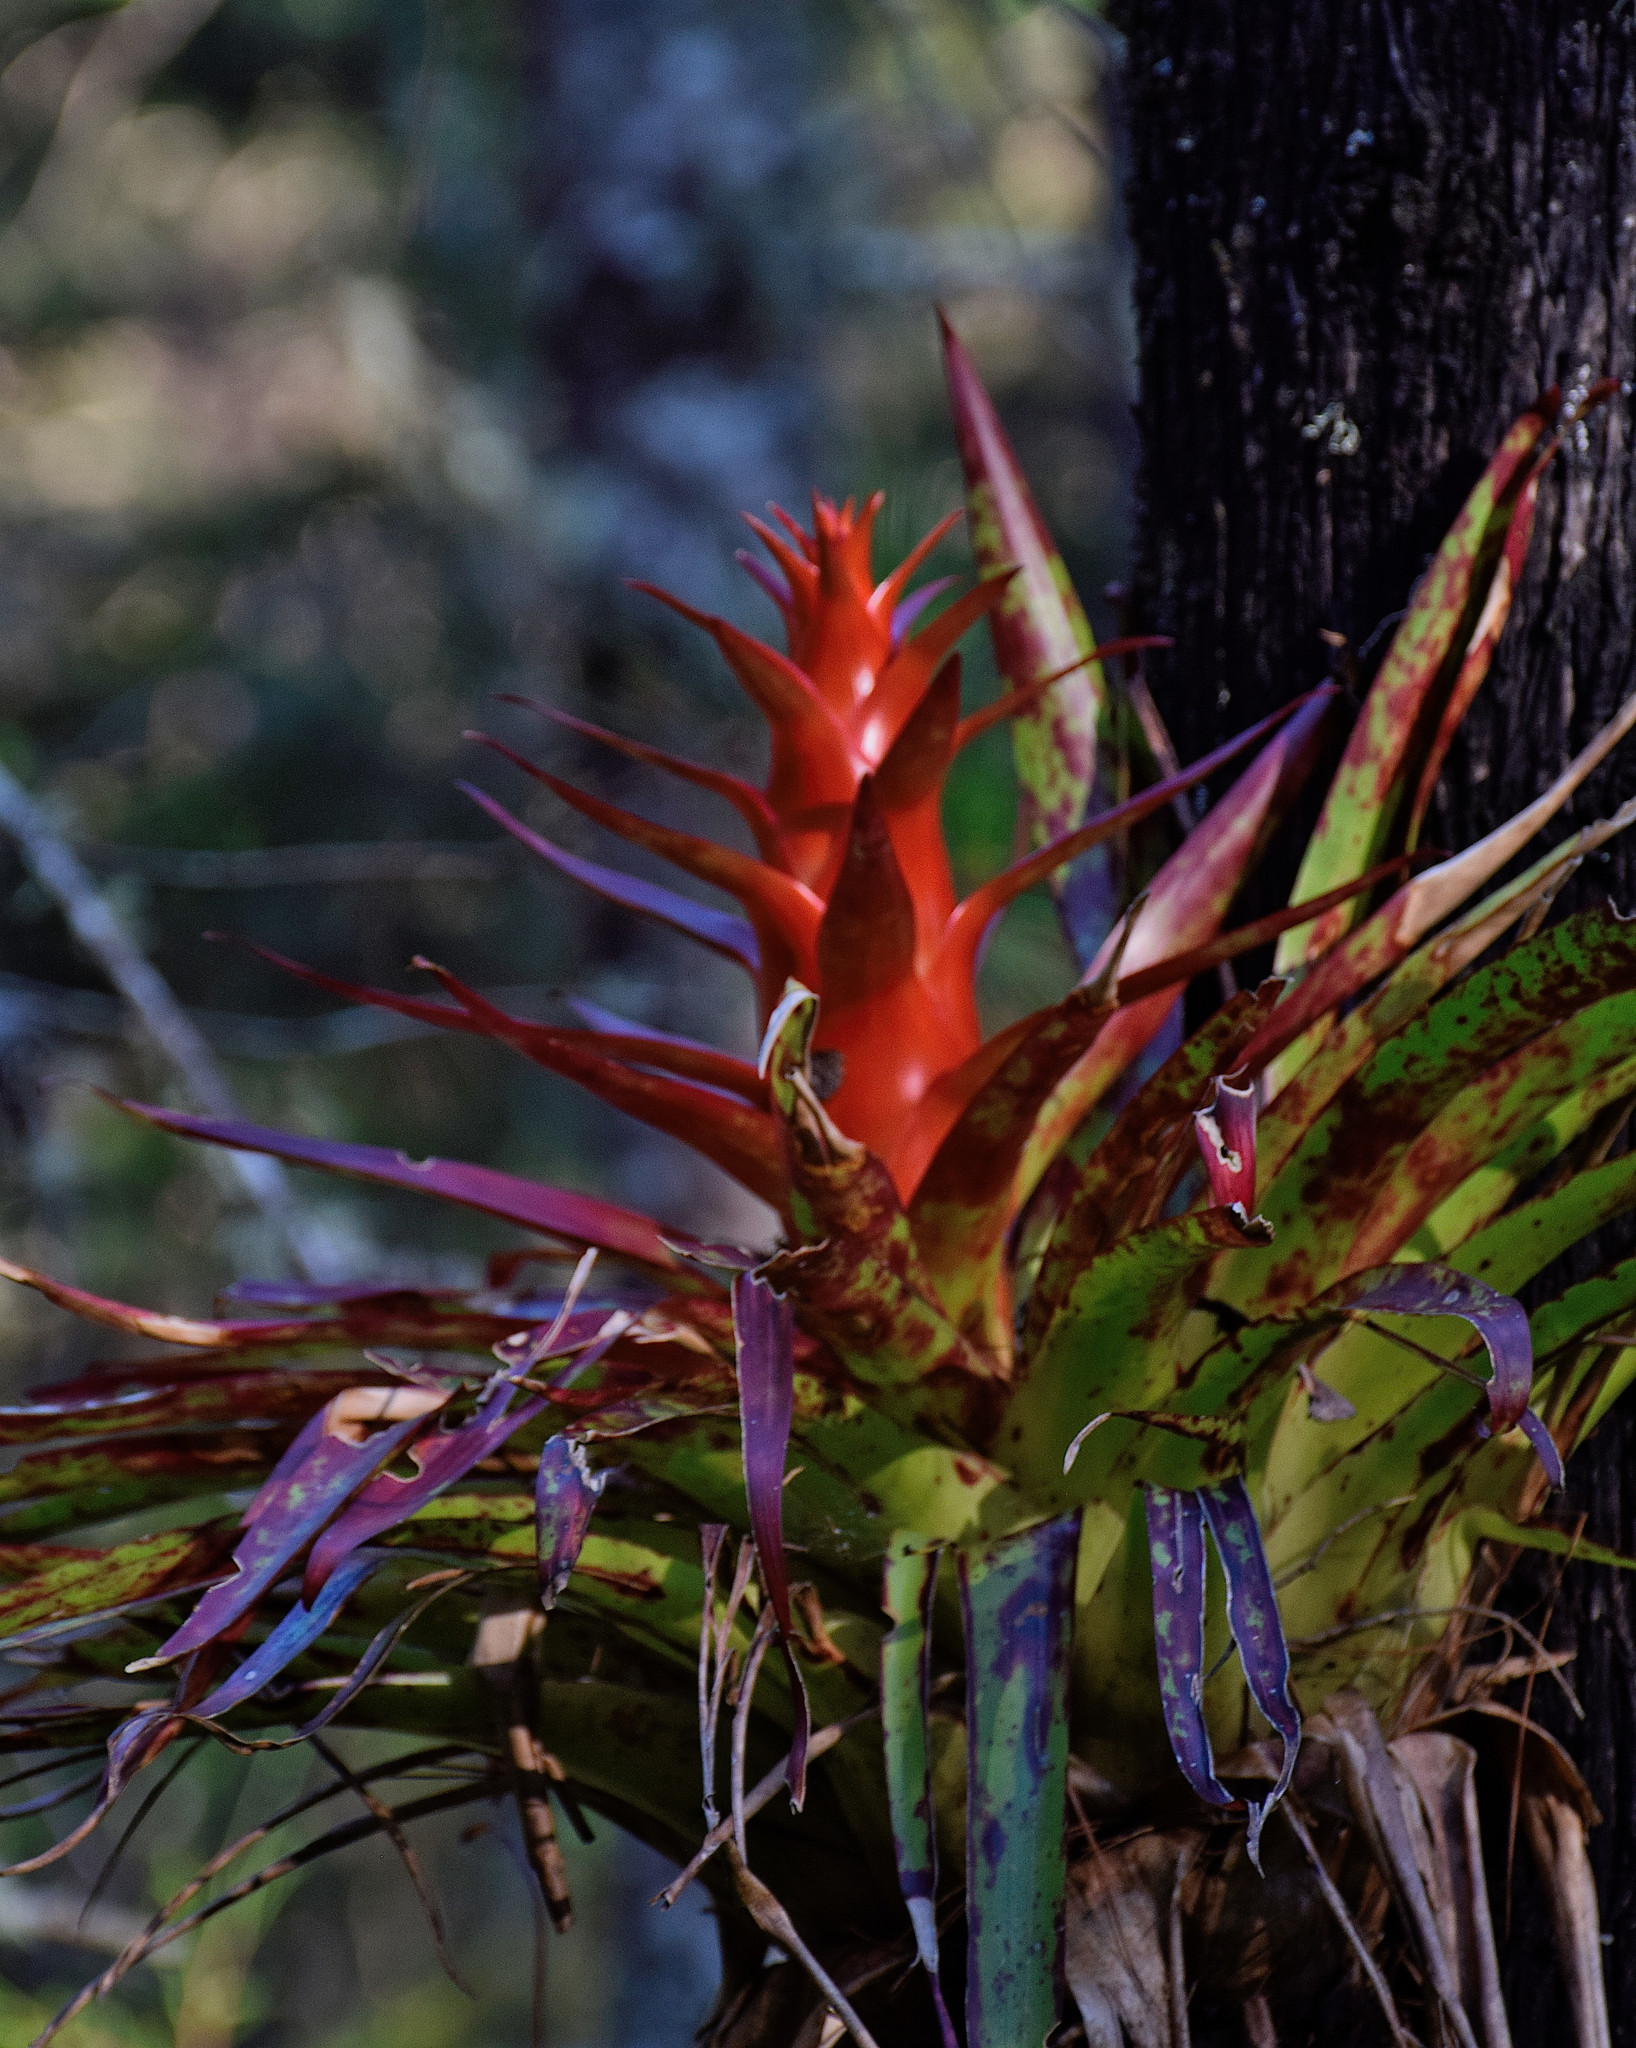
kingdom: Plantae
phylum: Tracheophyta
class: Liliopsida
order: Poales
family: Bromeliaceae
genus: Tillandsia
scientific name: Tillandsia imperialis
